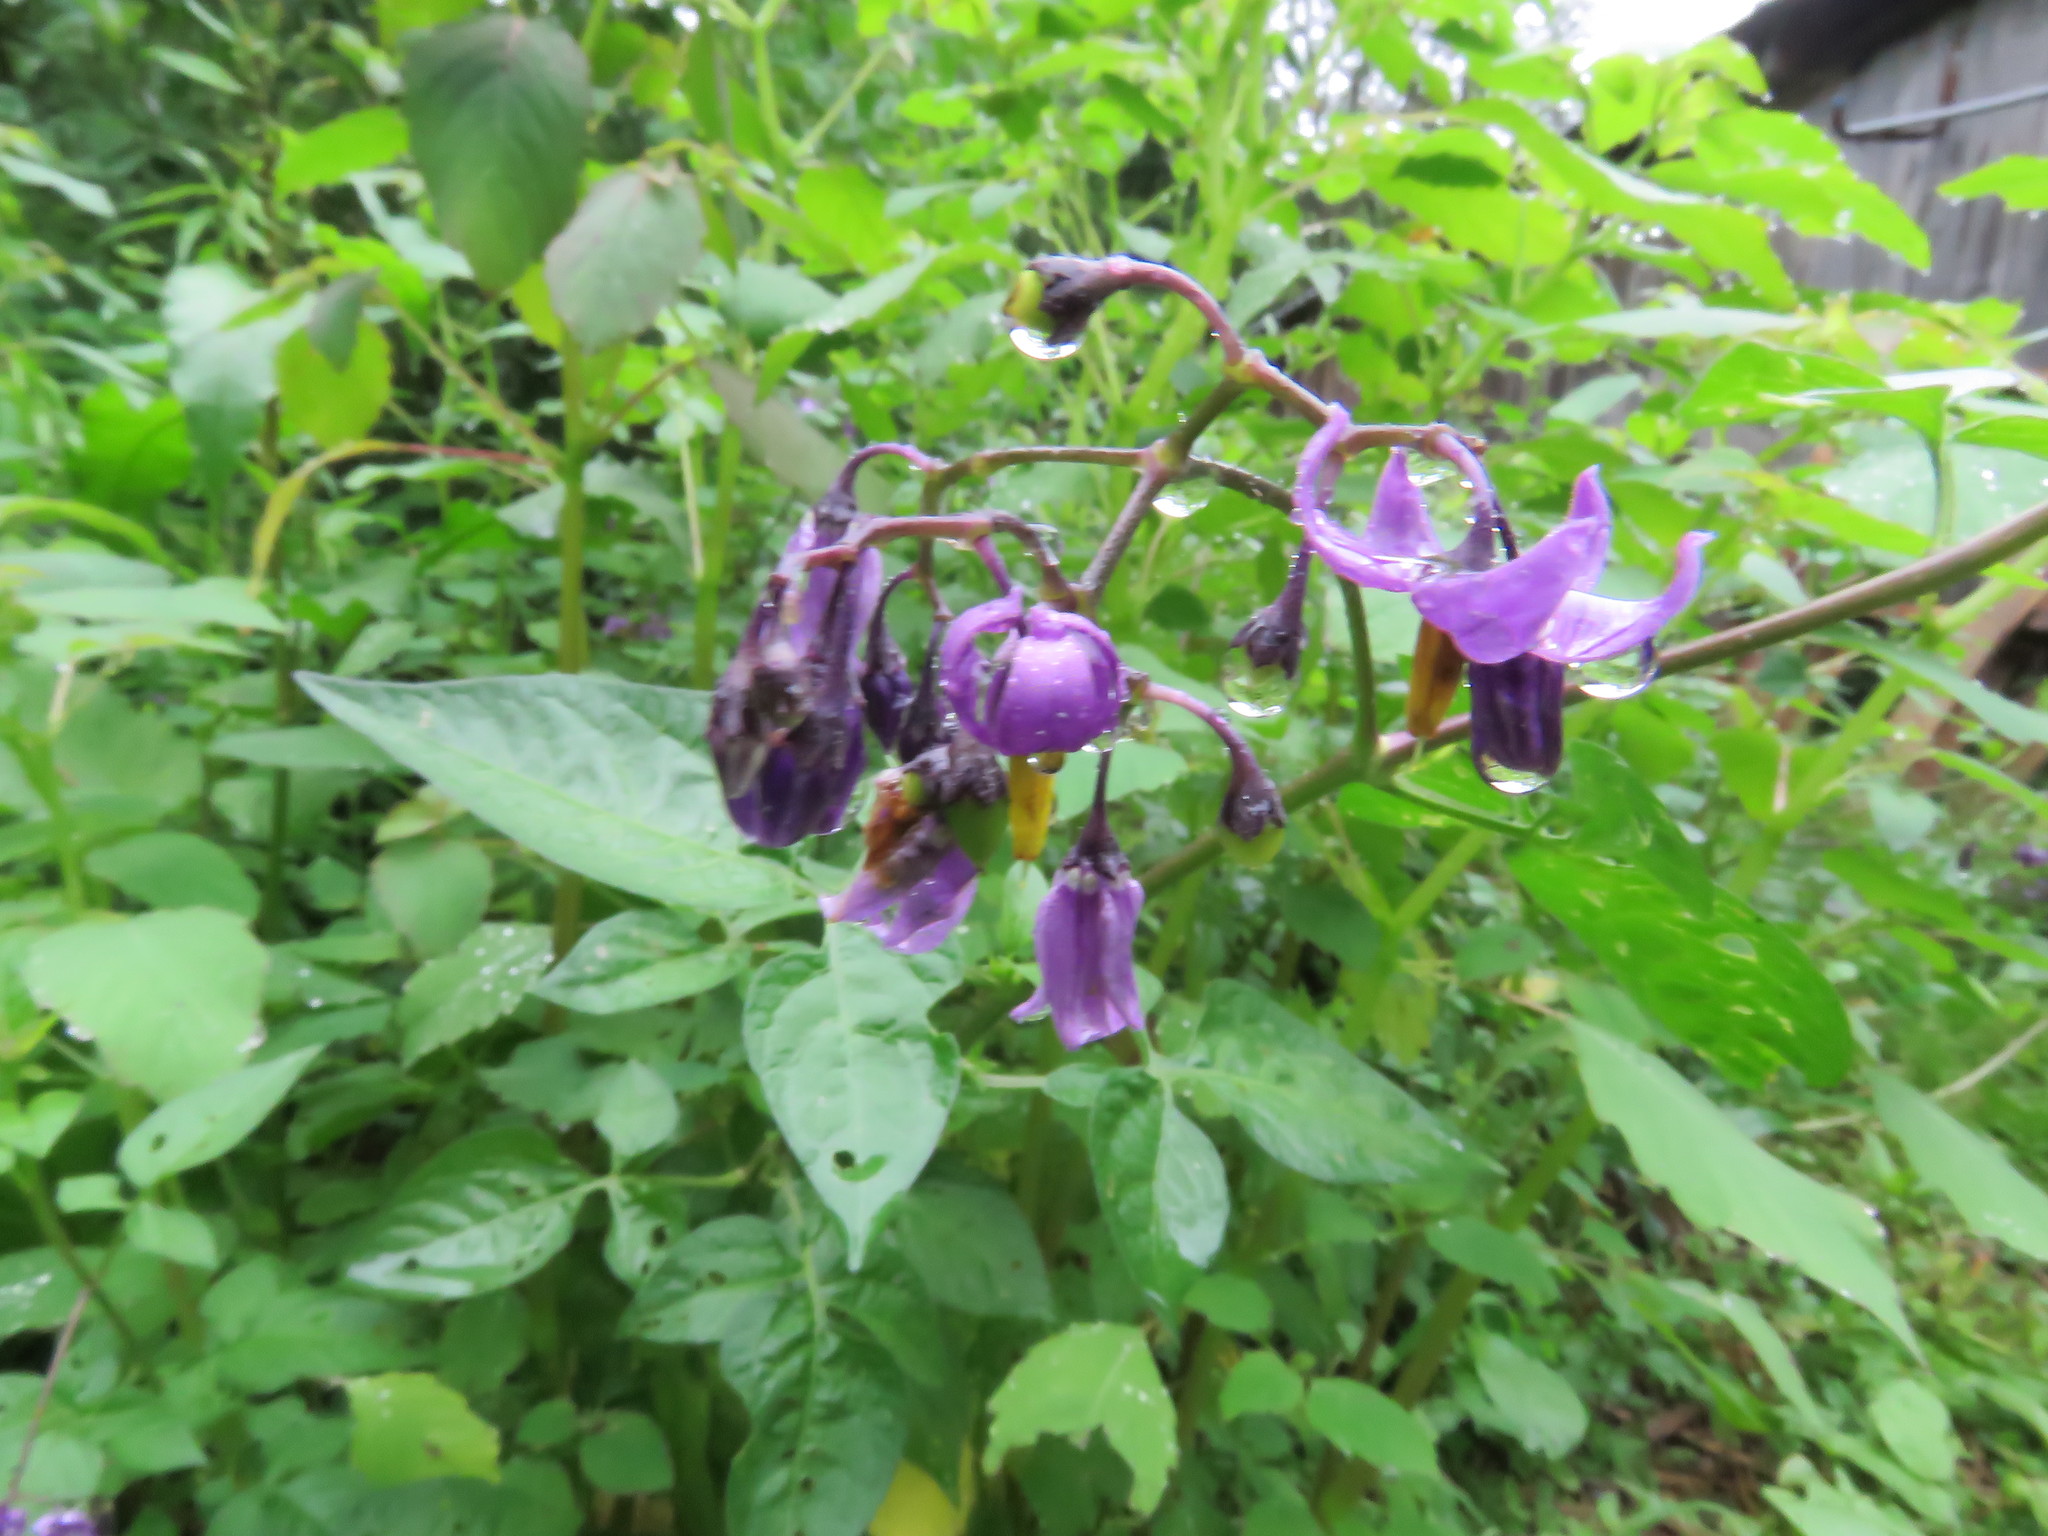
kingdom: Plantae
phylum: Tracheophyta
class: Magnoliopsida
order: Solanales
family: Solanaceae
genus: Solanum
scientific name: Solanum dulcamara
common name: Climbing nightshade
